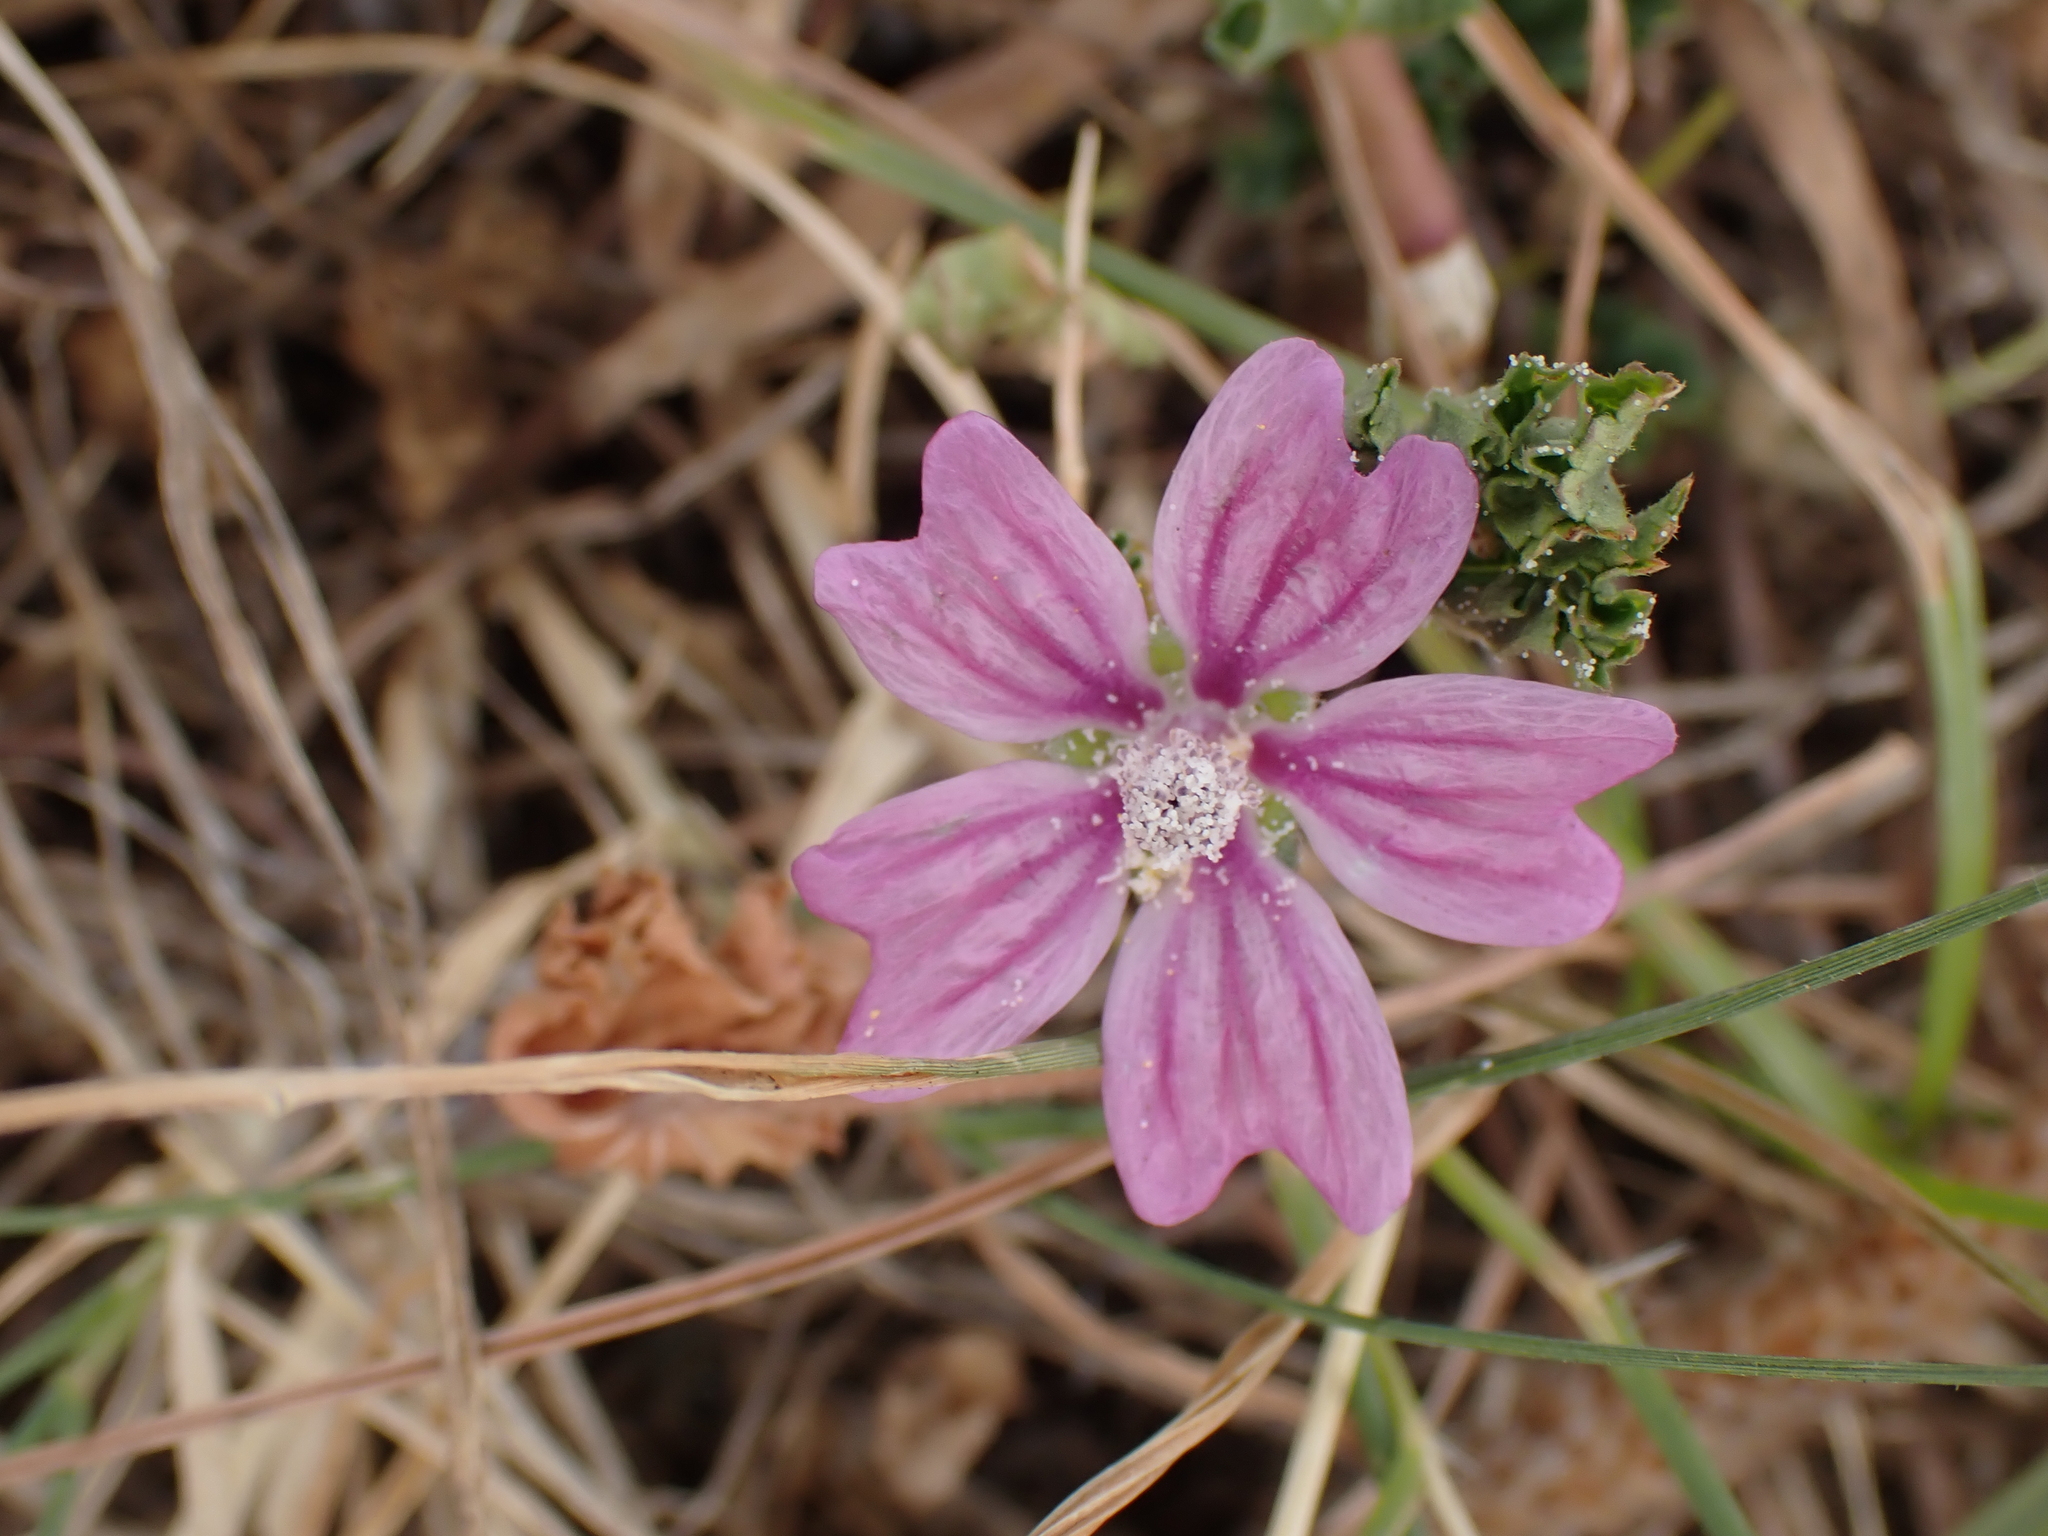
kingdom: Plantae
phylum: Tracheophyta
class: Magnoliopsida
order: Malvales
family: Malvaceae
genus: Malva
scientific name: Malva sylvestris
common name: Common mallow
